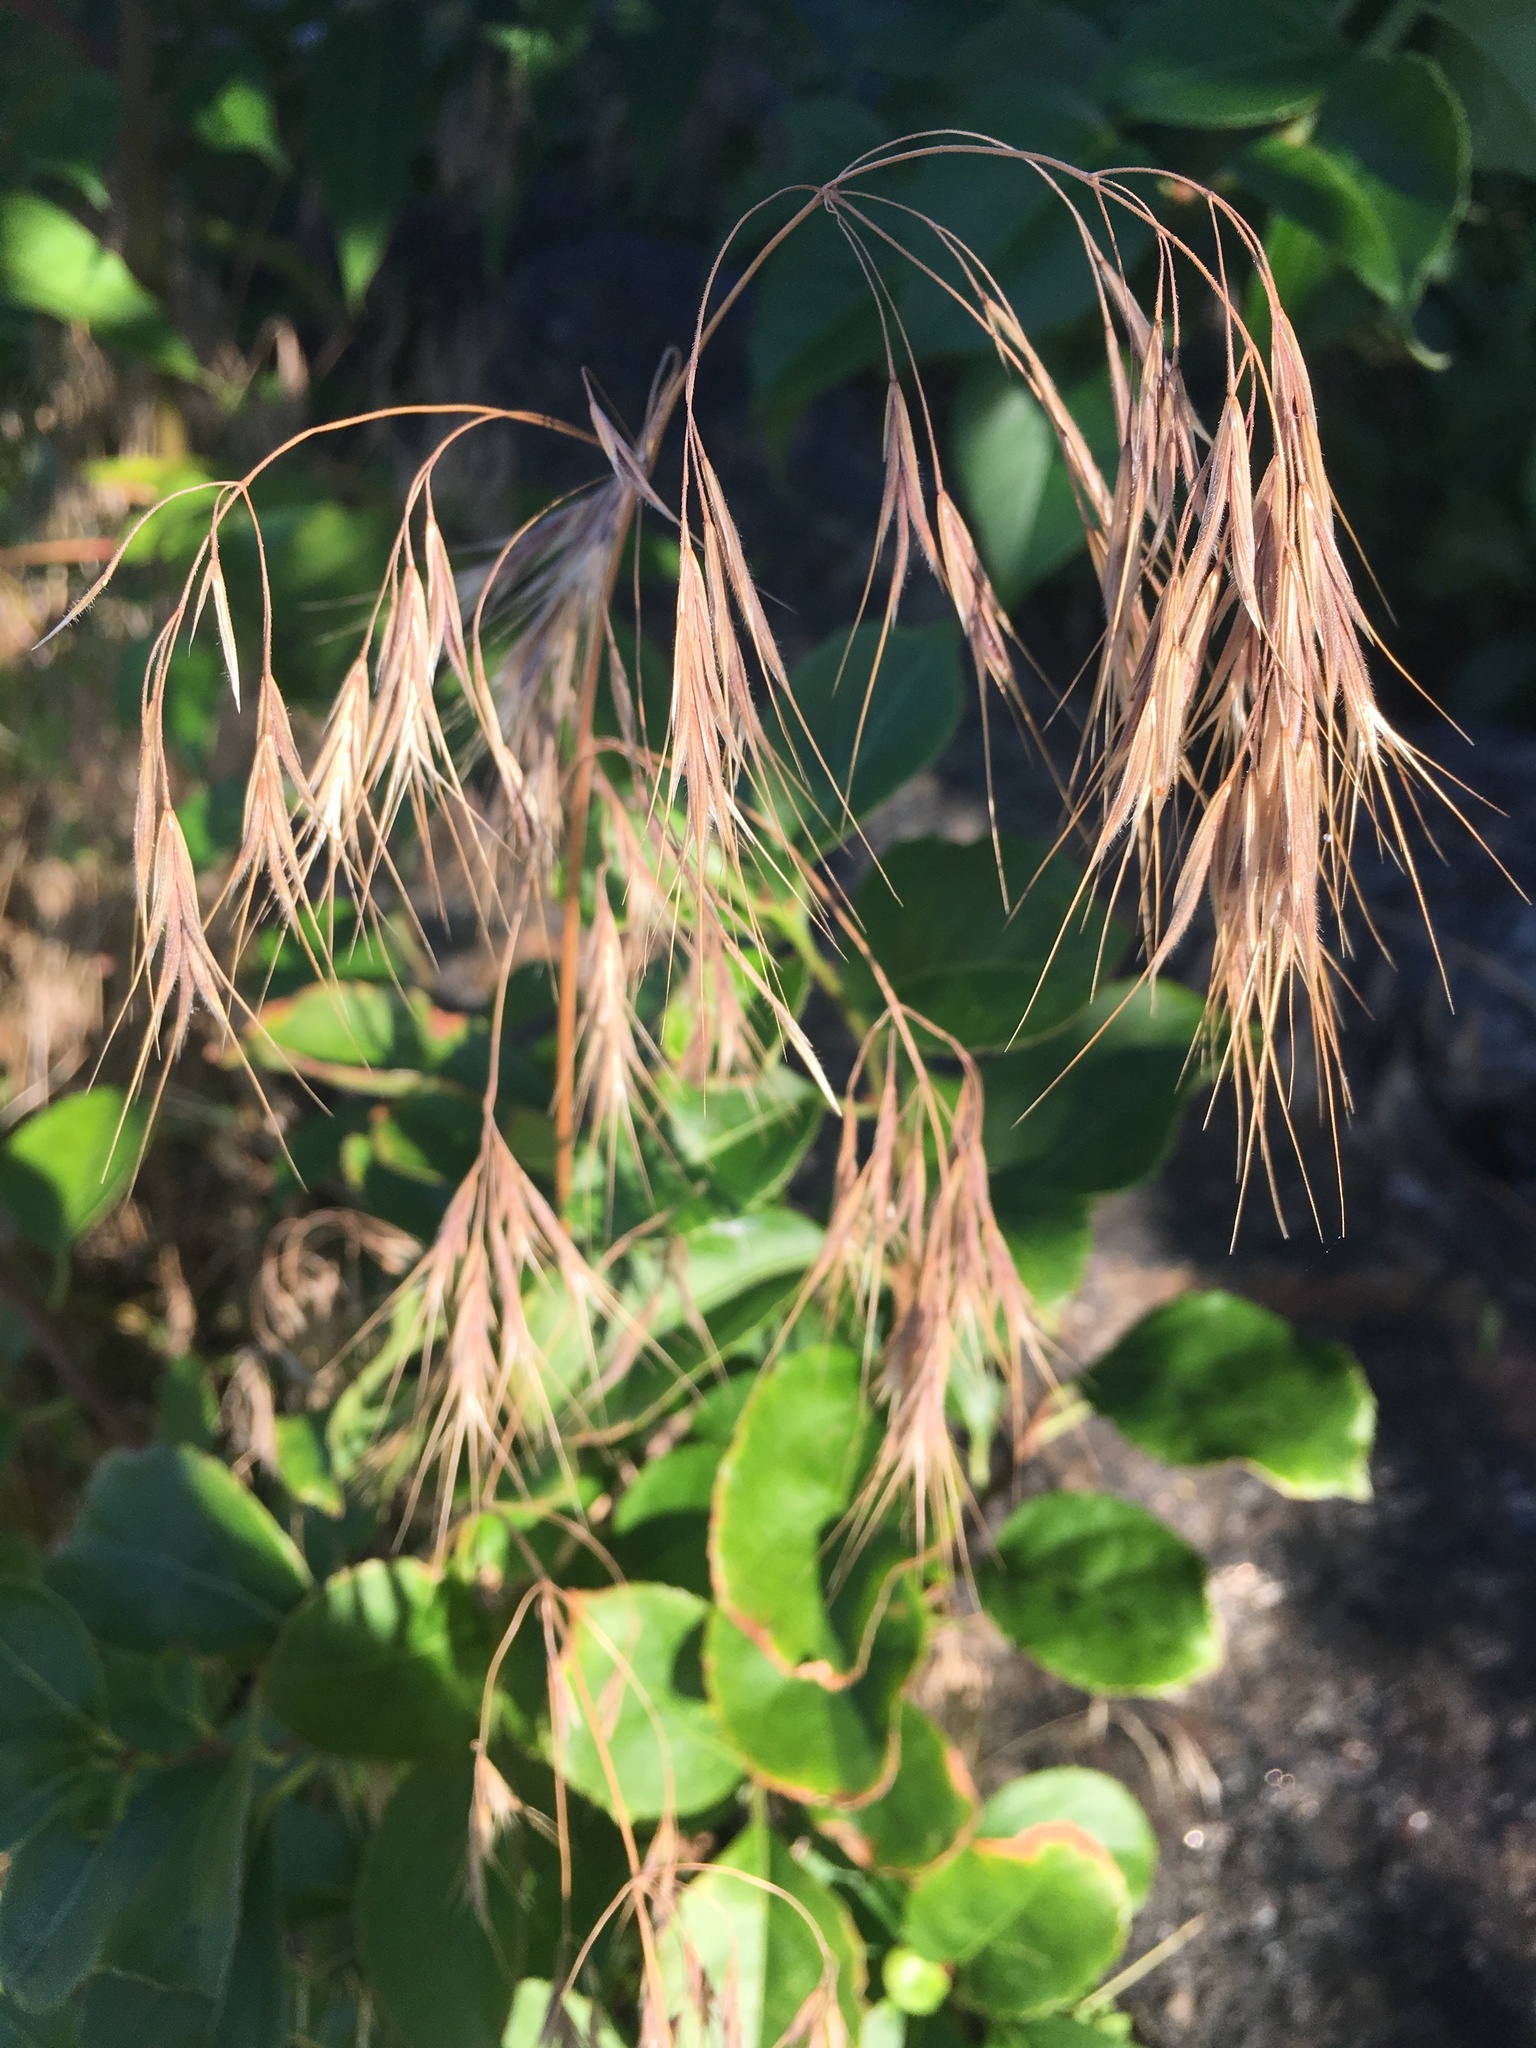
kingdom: Plantae
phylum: Tracheophyta
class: Liliopsida
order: Poales
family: Poaceae
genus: Bromus
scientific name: Bromus tectorum
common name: Cheatgrass
